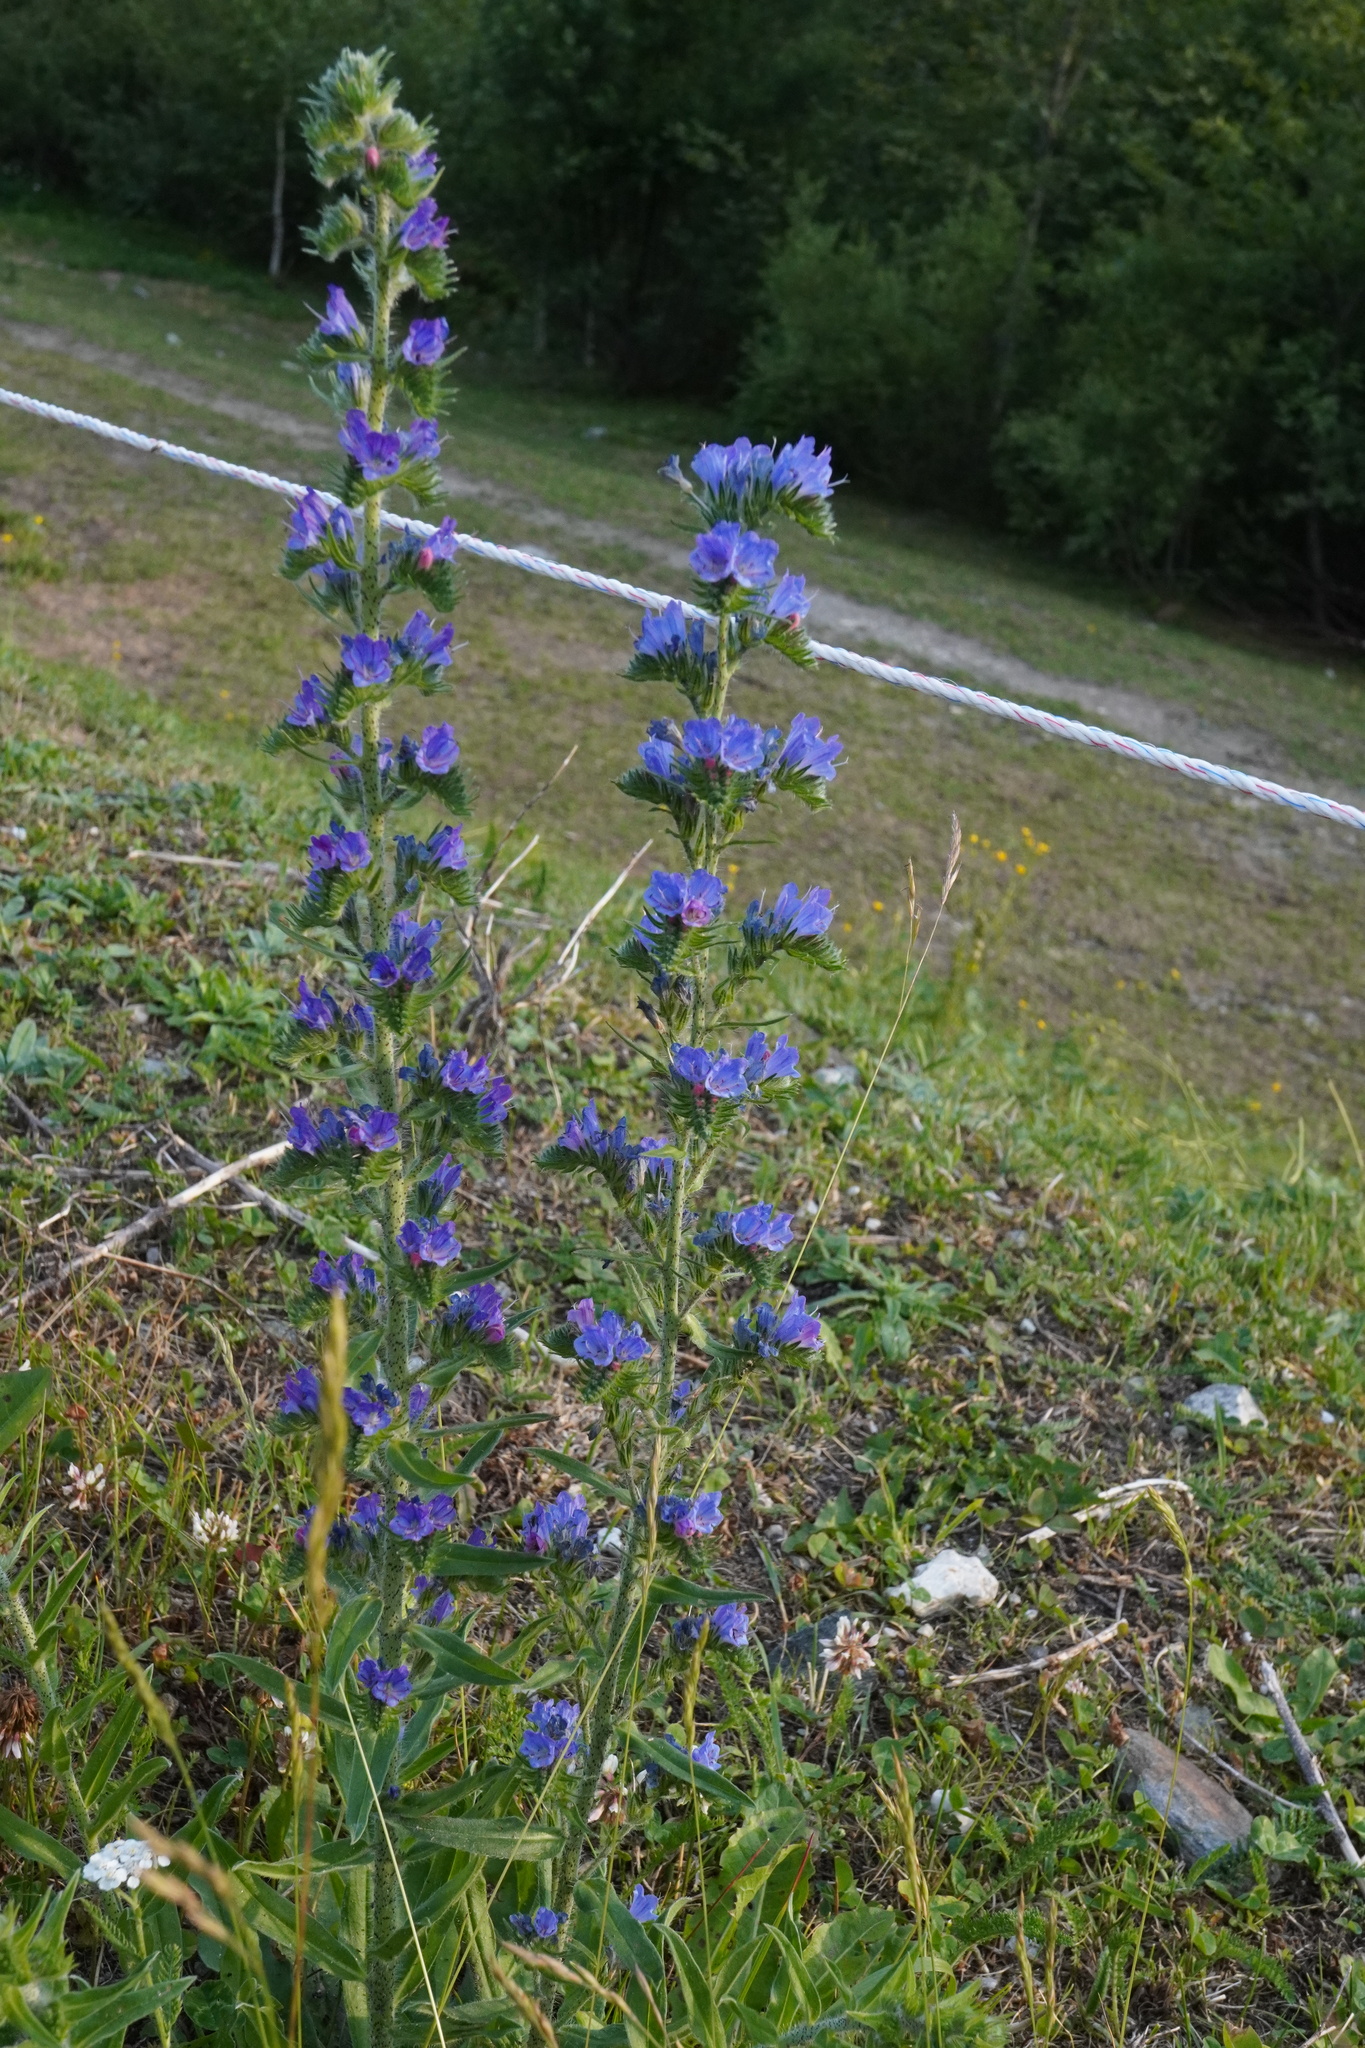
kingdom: Plantae
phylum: Tracheophyta
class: Magnoliopsida
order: Boraginales
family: Boraginaceae
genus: Echium
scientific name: Echium vulgare
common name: Common viper's bugloss
